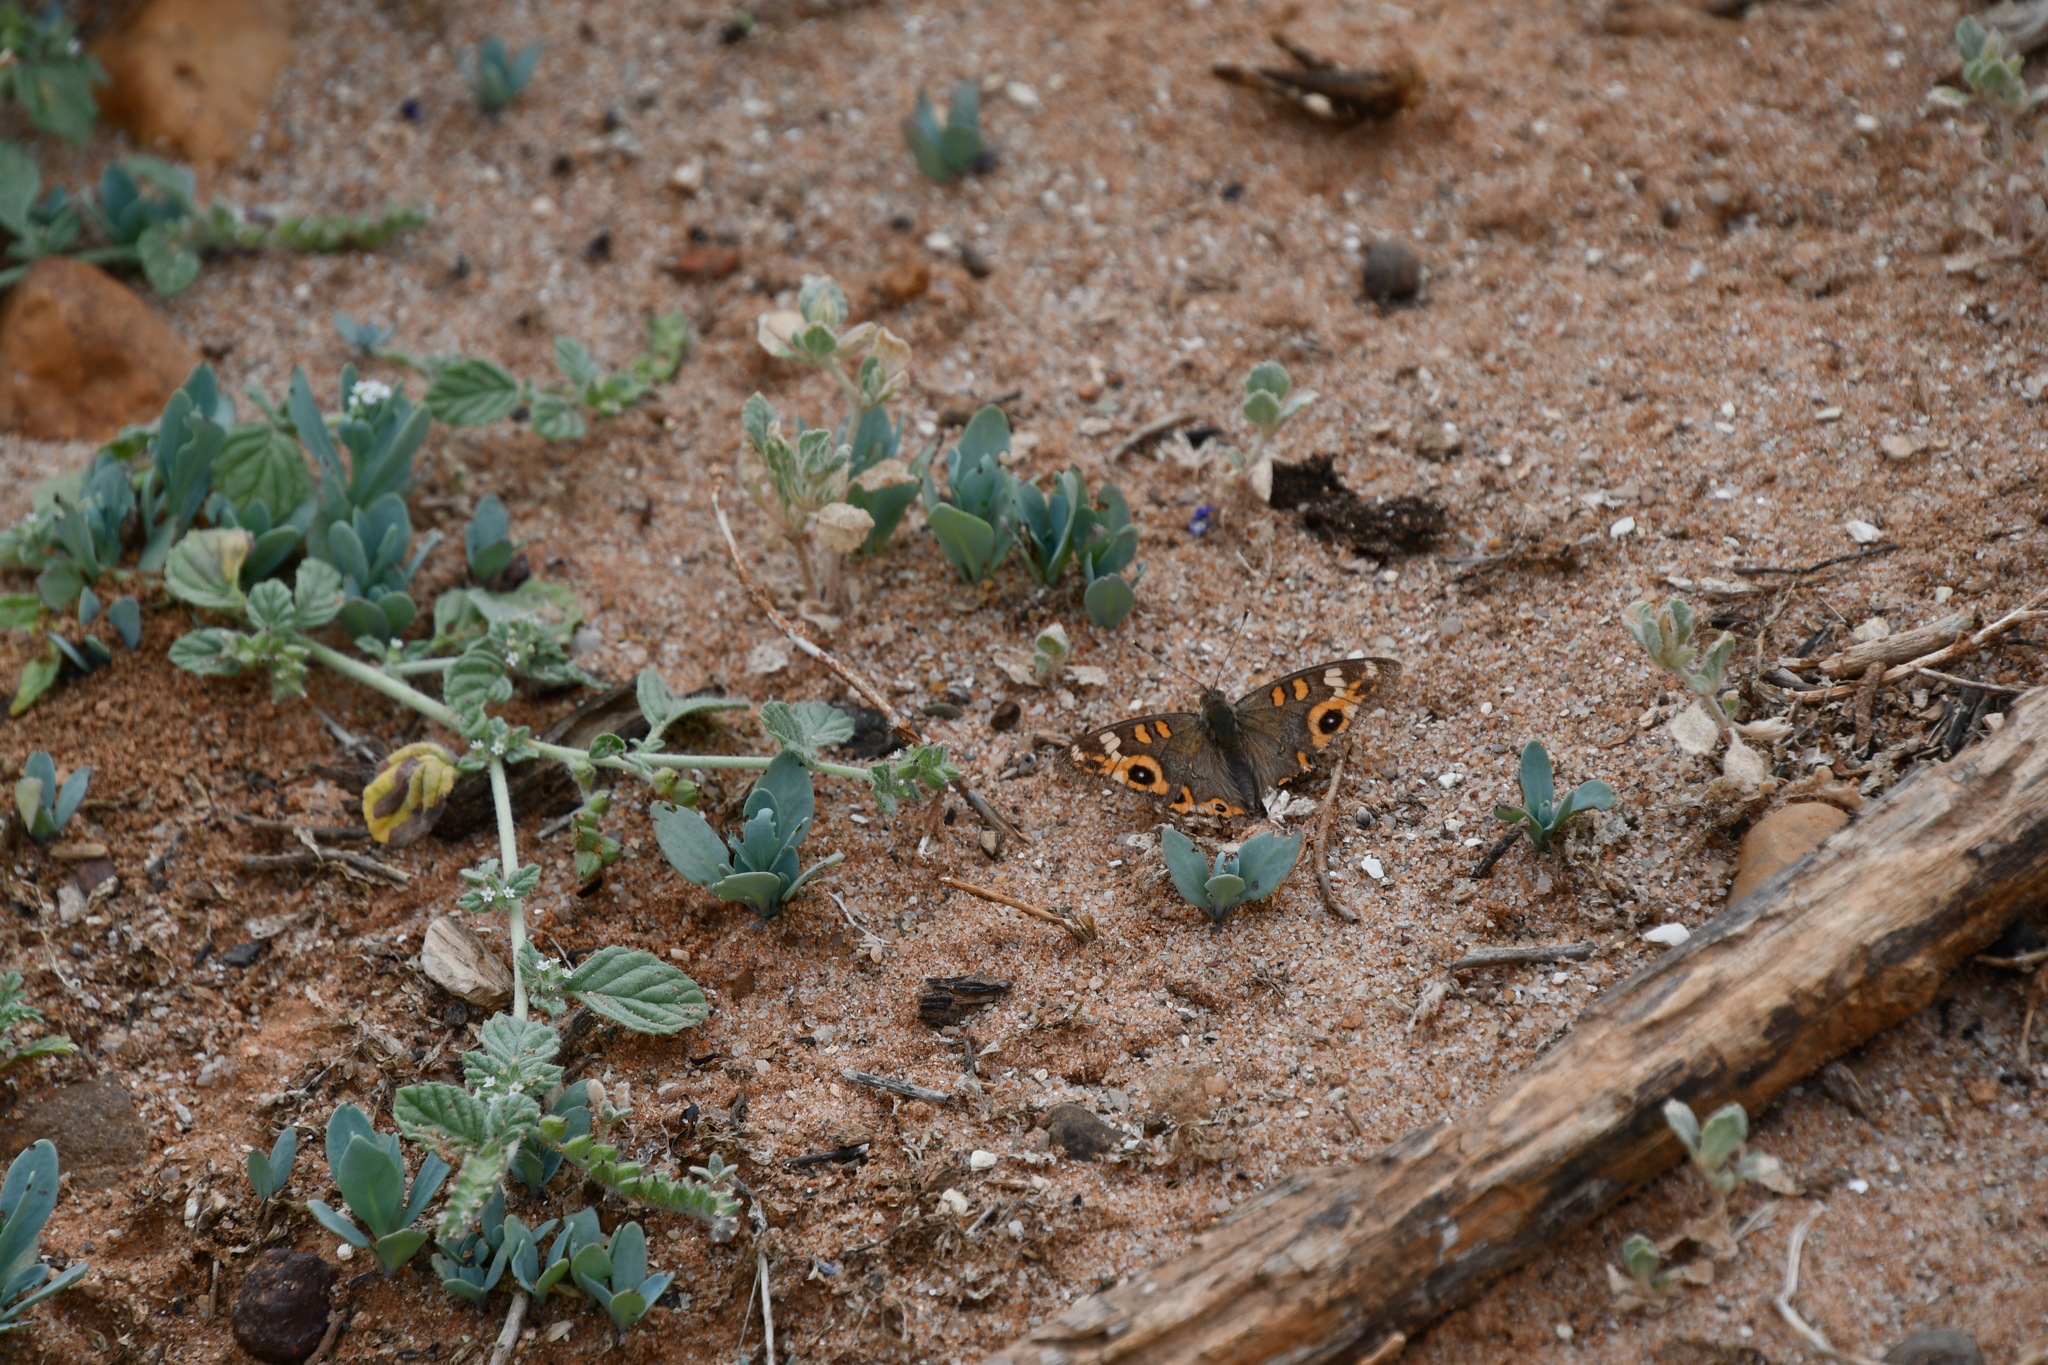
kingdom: Animalia
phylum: Arthropoda
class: Insecta
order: Lepidoptera
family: Nymphalidae
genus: Junonia
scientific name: Junonia villida
